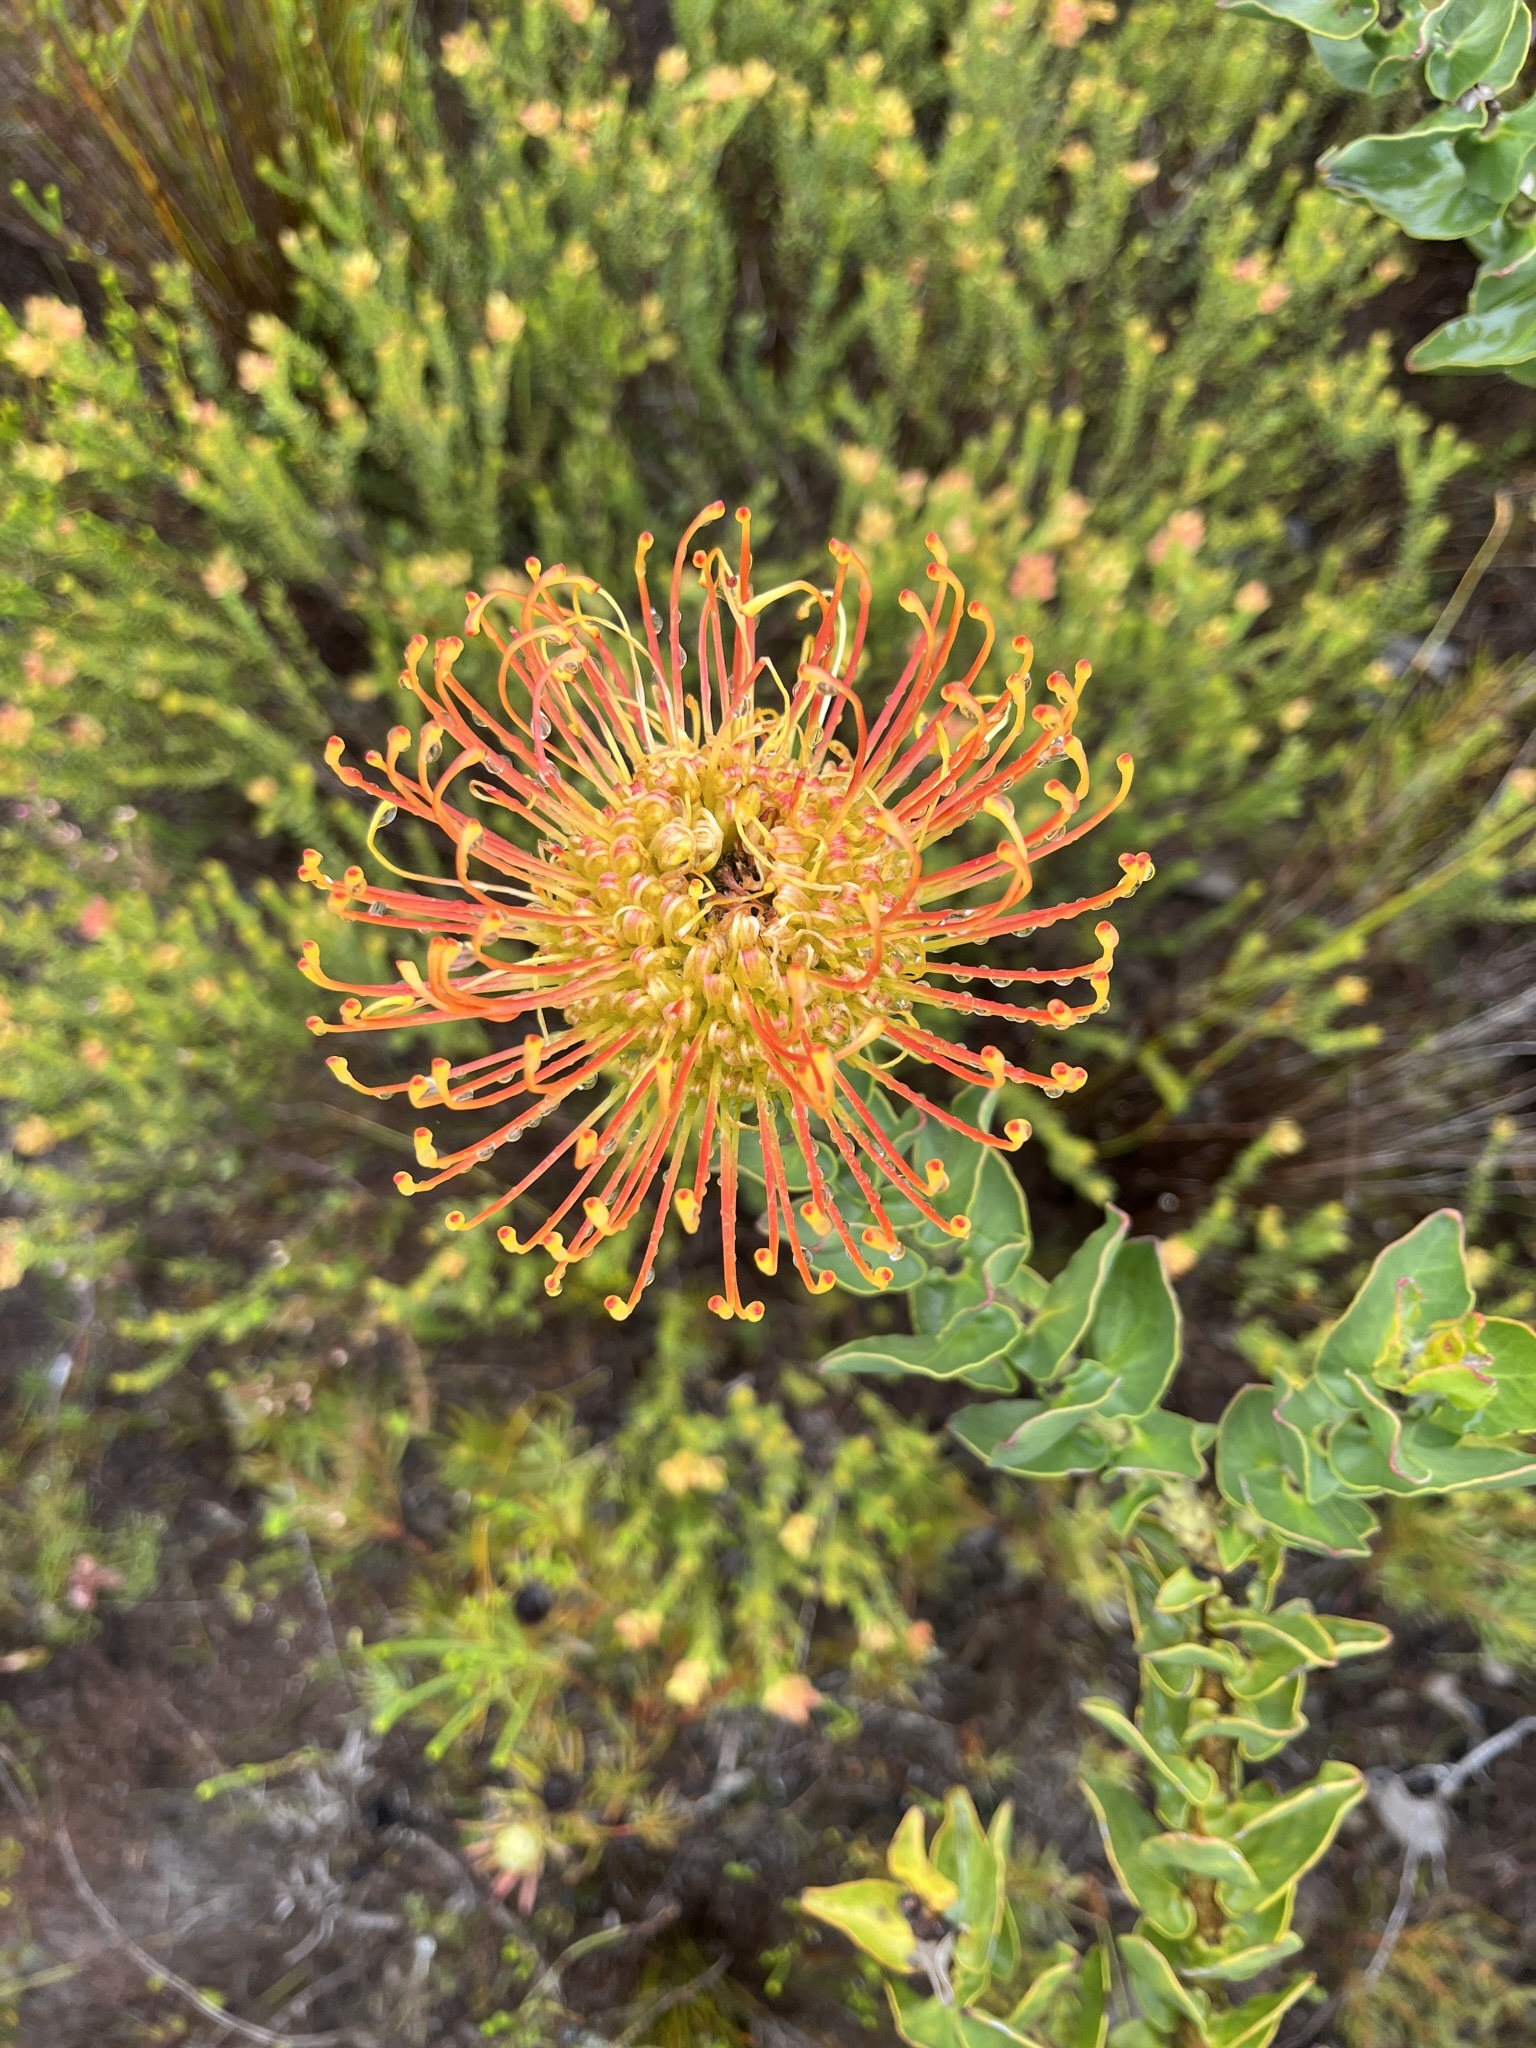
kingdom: Plantae
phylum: Tracheophyta
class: Magnoliopsida
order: Proteales
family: Proteaceae
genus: Leucospermum
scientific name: Leucospermum cordifolium
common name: Red pincushion-protea
